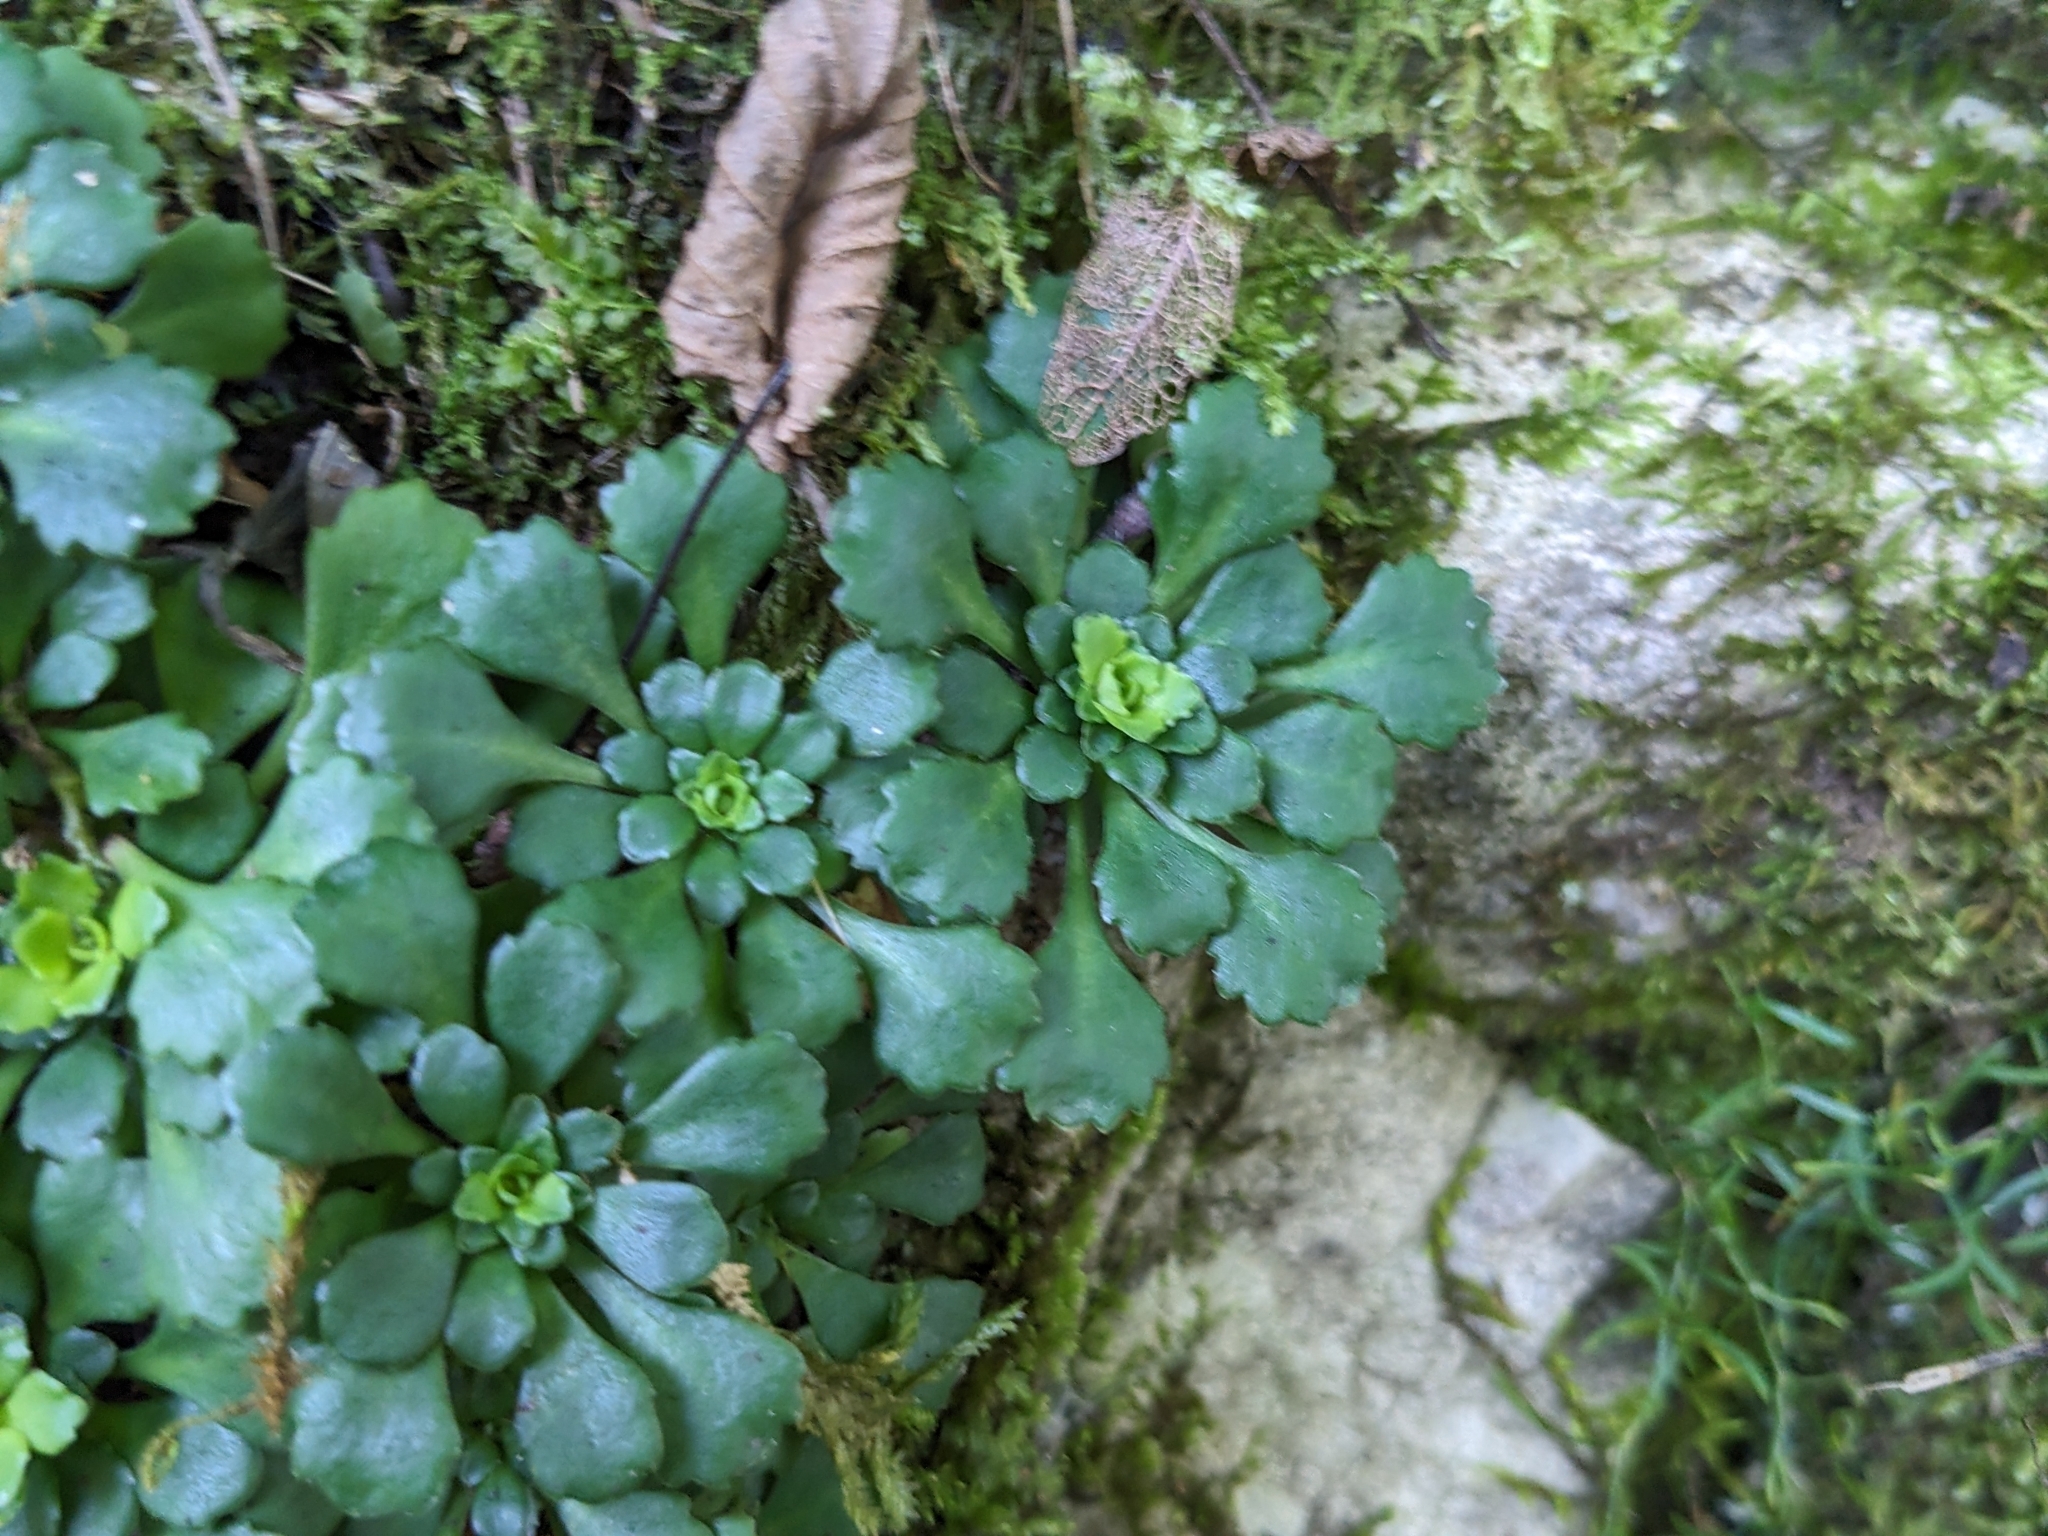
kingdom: Plantae
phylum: Tracheophyta
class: Magnoliopsida
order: Saxifragales
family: Saxifragaceae
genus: Saxifraga
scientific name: Saxifraga cuneifolia
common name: Lesser londonpride
